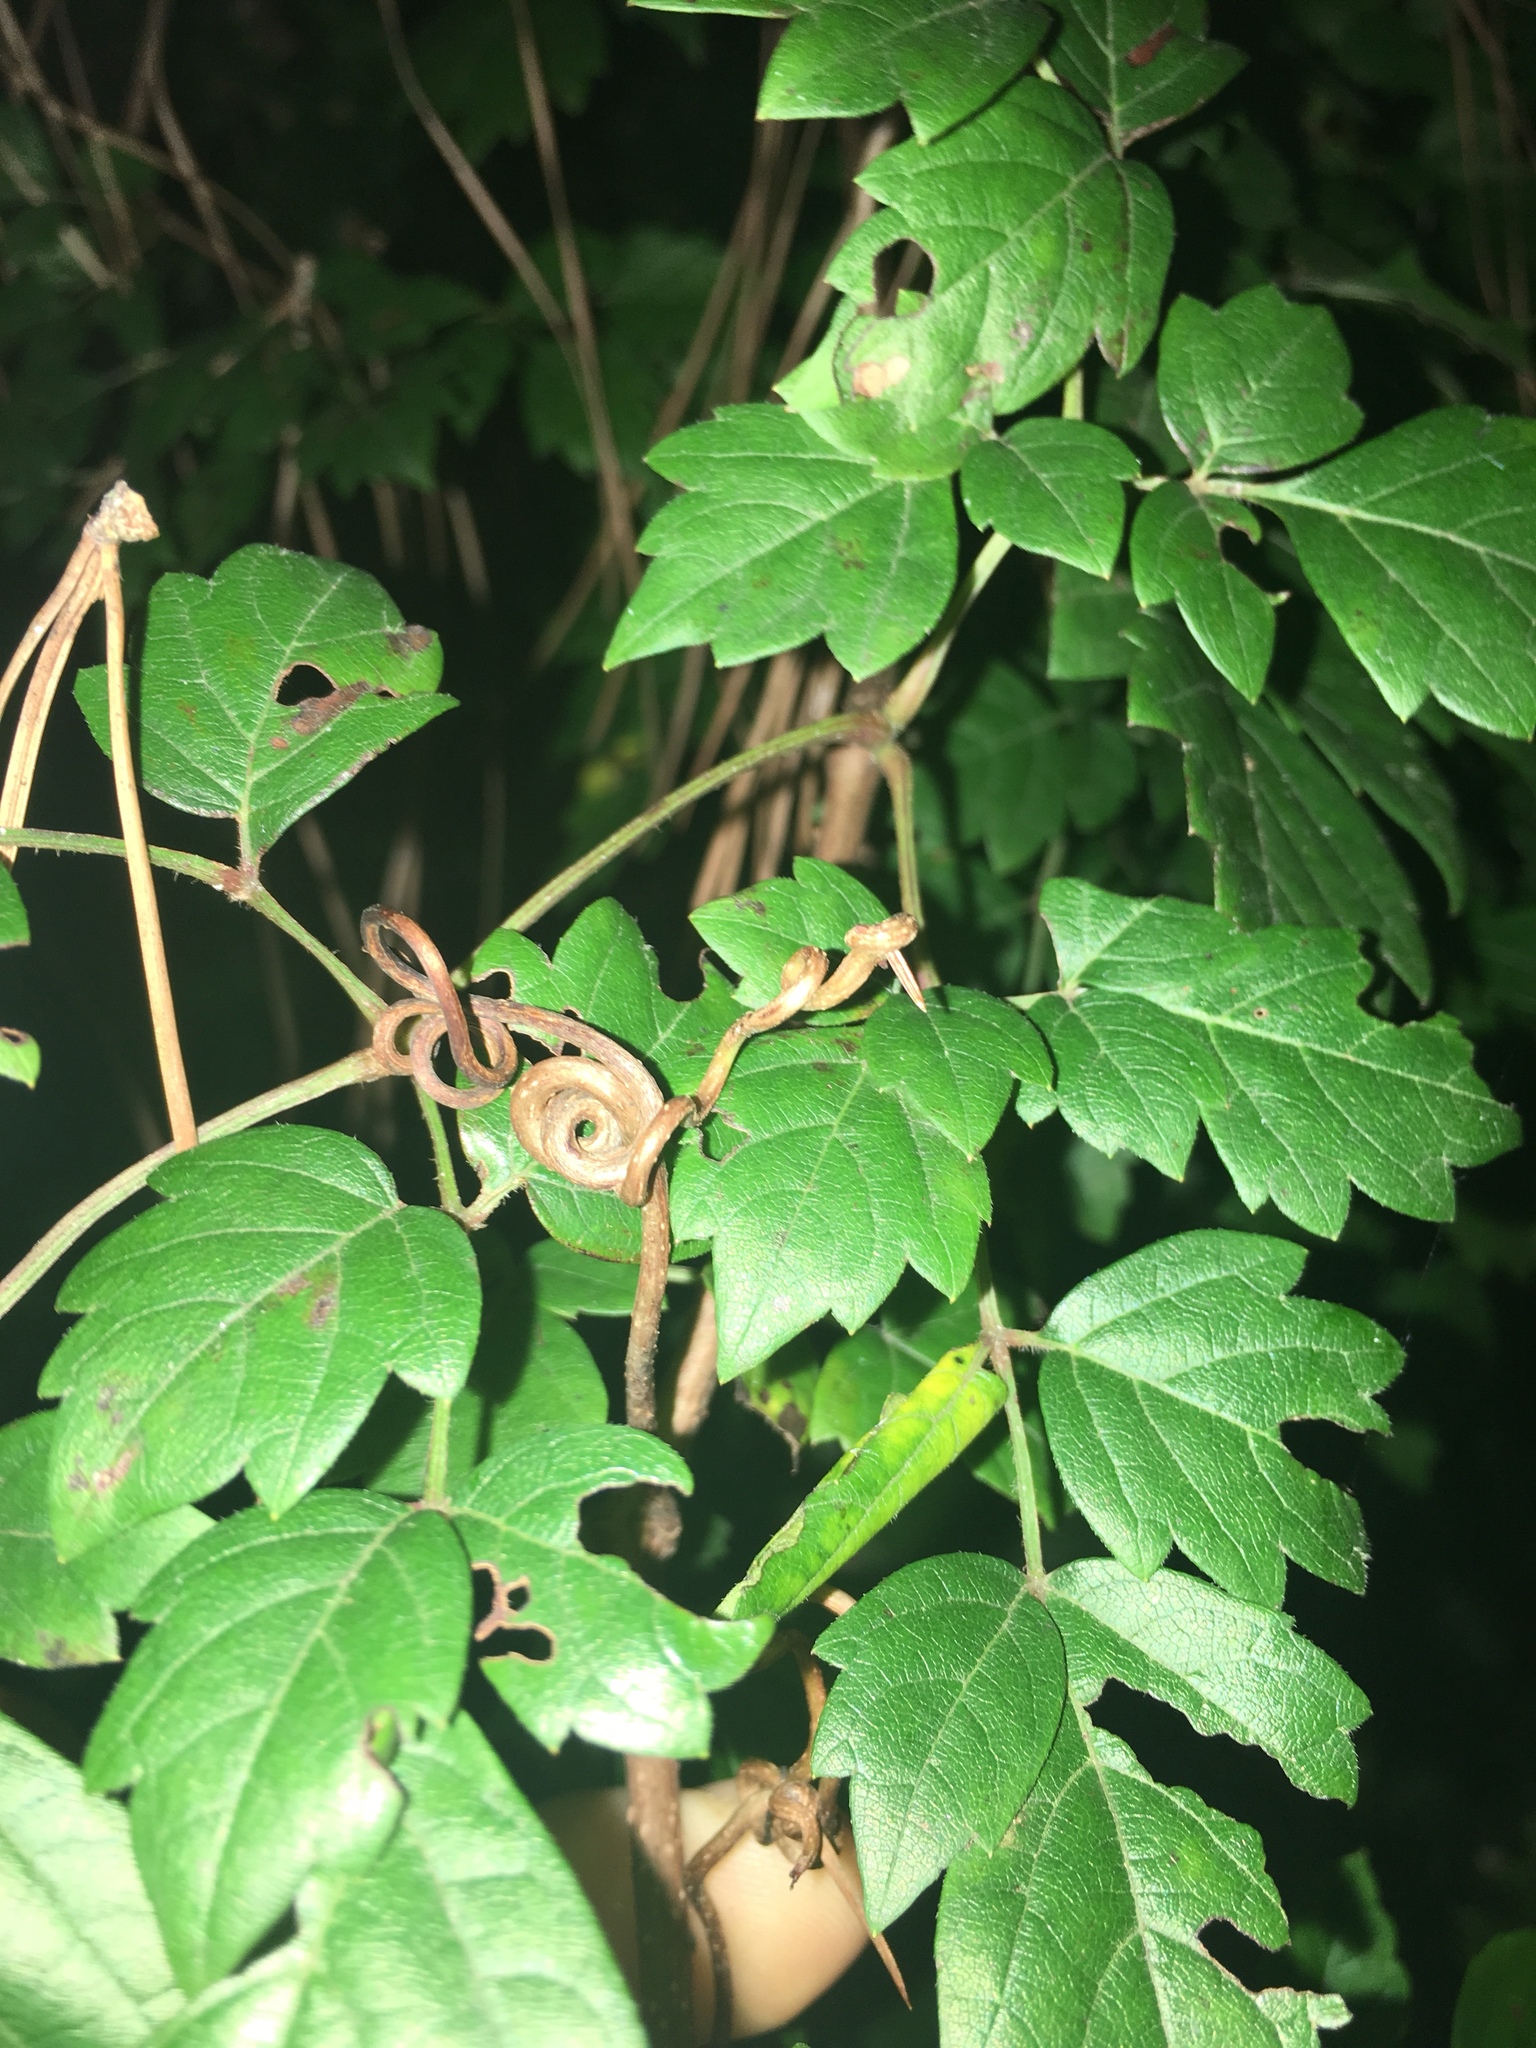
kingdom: Plantae
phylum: Tracheophyta
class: Magnoliopsida
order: Vitales
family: Vitaceae
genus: Nekemias
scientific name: Nekemias arborea
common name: Peppervine
